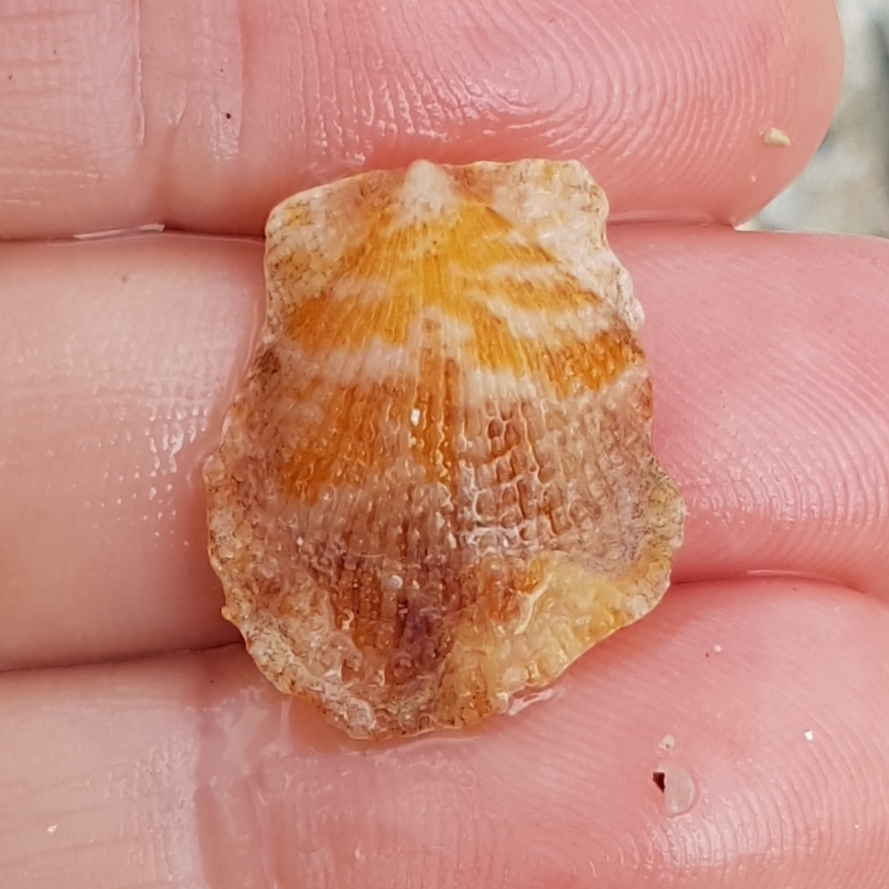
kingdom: Animalia
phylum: Mollusca
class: Bivalvia
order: Pectinida
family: Pectinidae
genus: Talochlamys
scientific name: Talochlamys pusio
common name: Hunchback scallop
